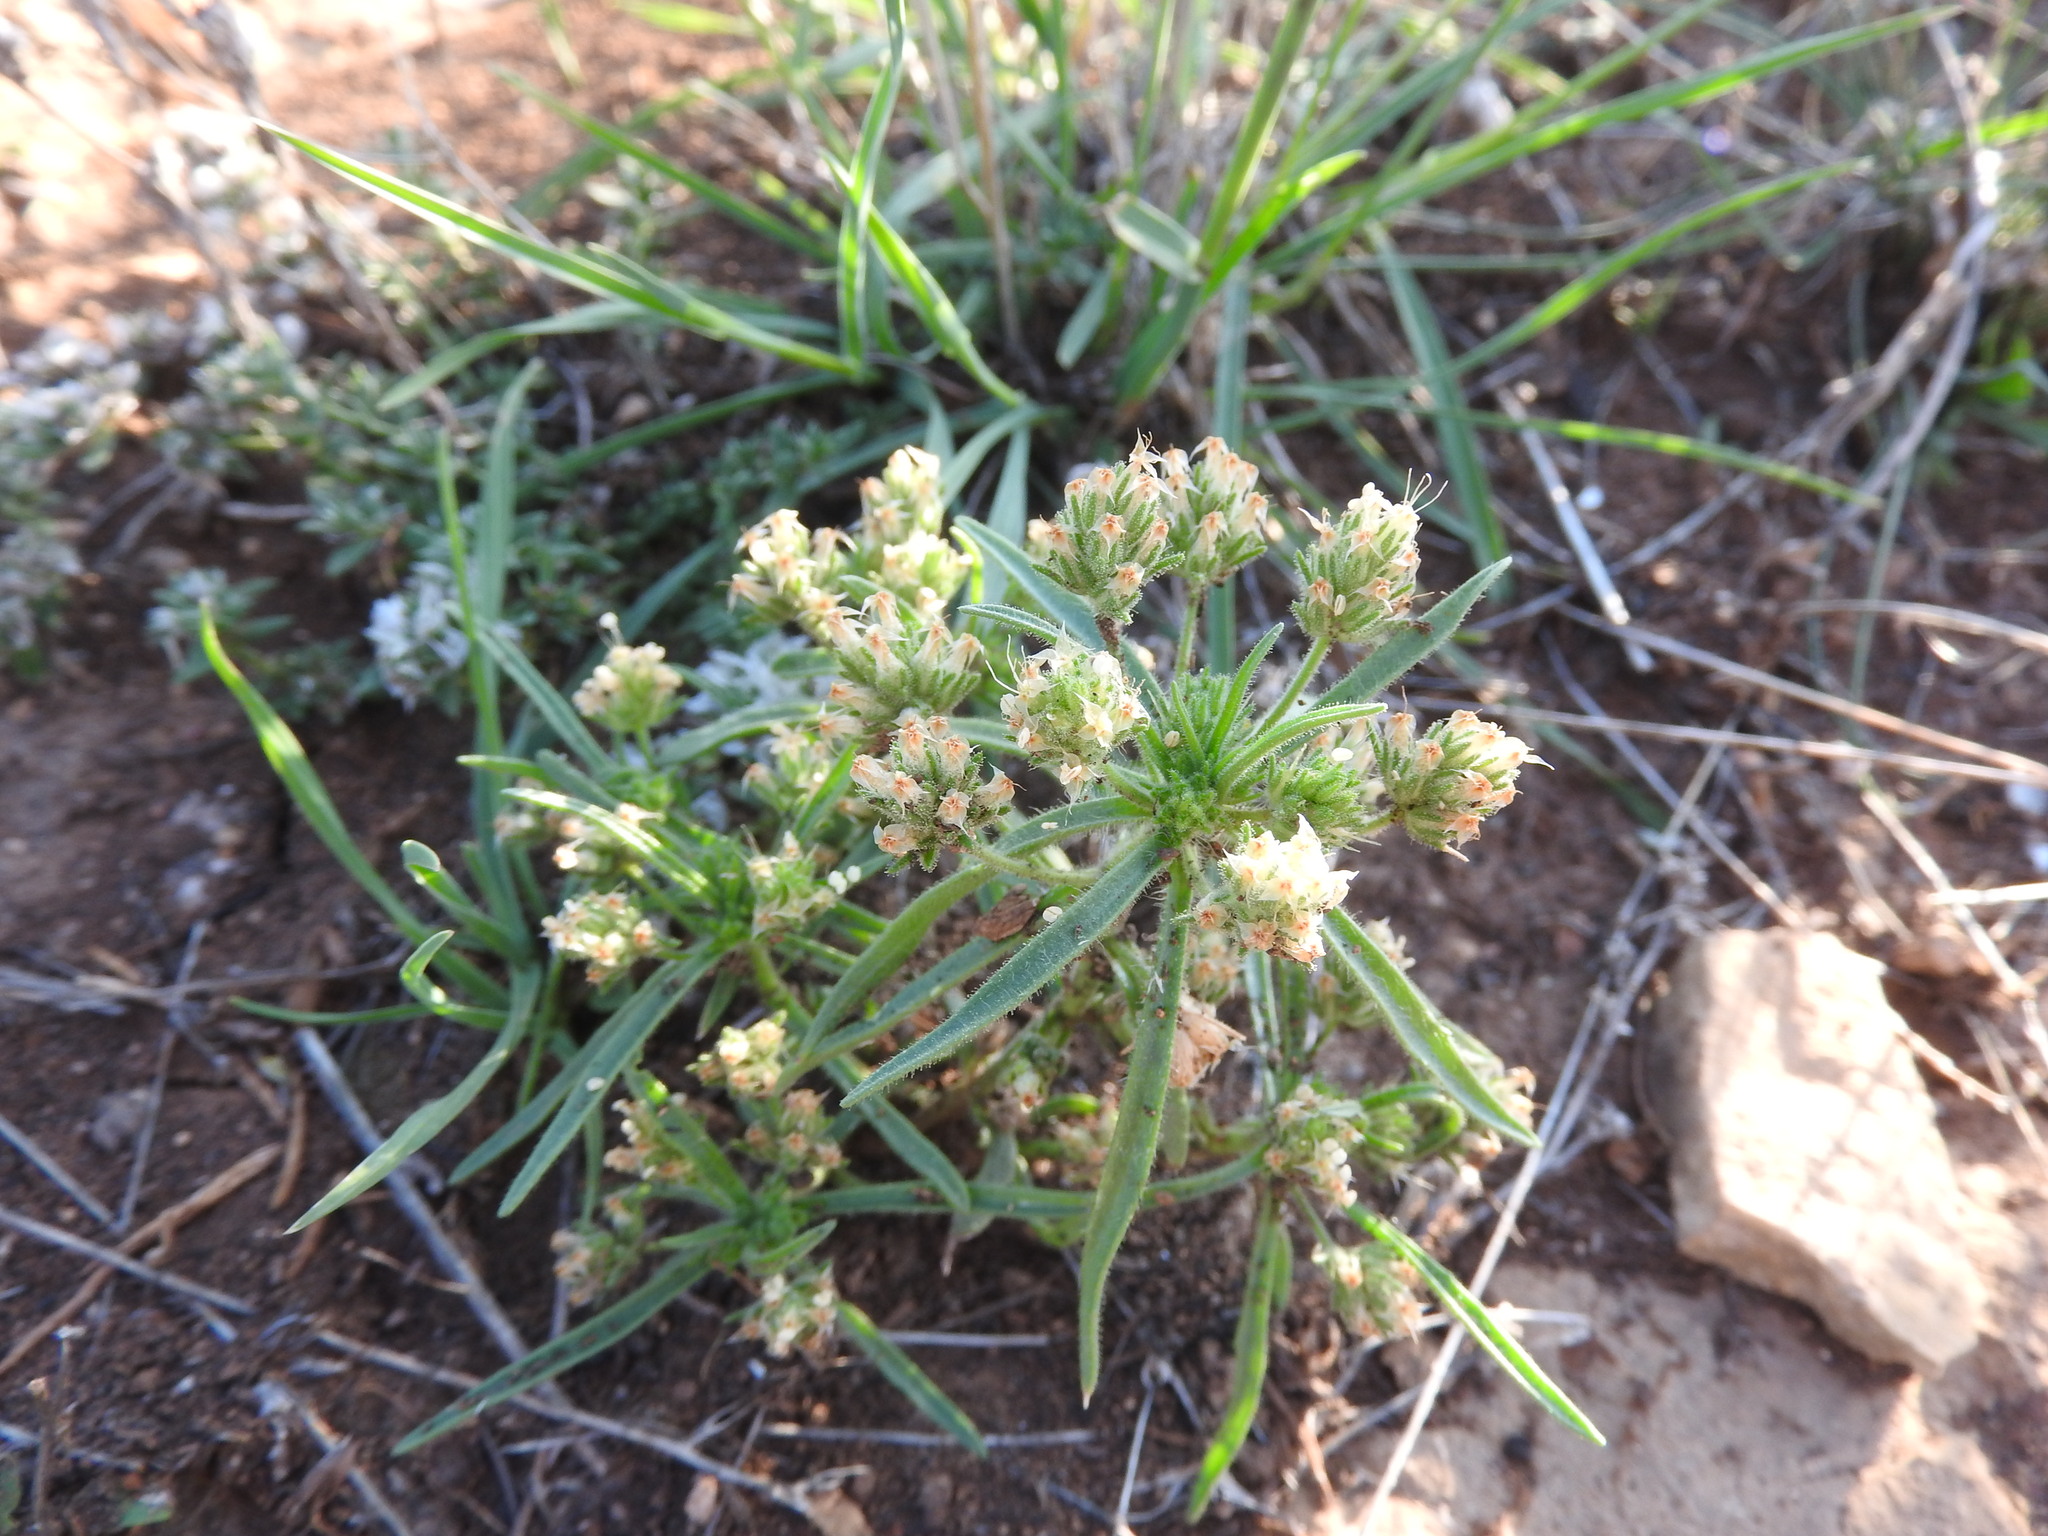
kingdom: Plantae
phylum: Tracheophyta
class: Magnoliopsida
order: Lamiales
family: Plantaginaceae
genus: Plantago
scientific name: Plantago afra
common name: Glandular plantain
